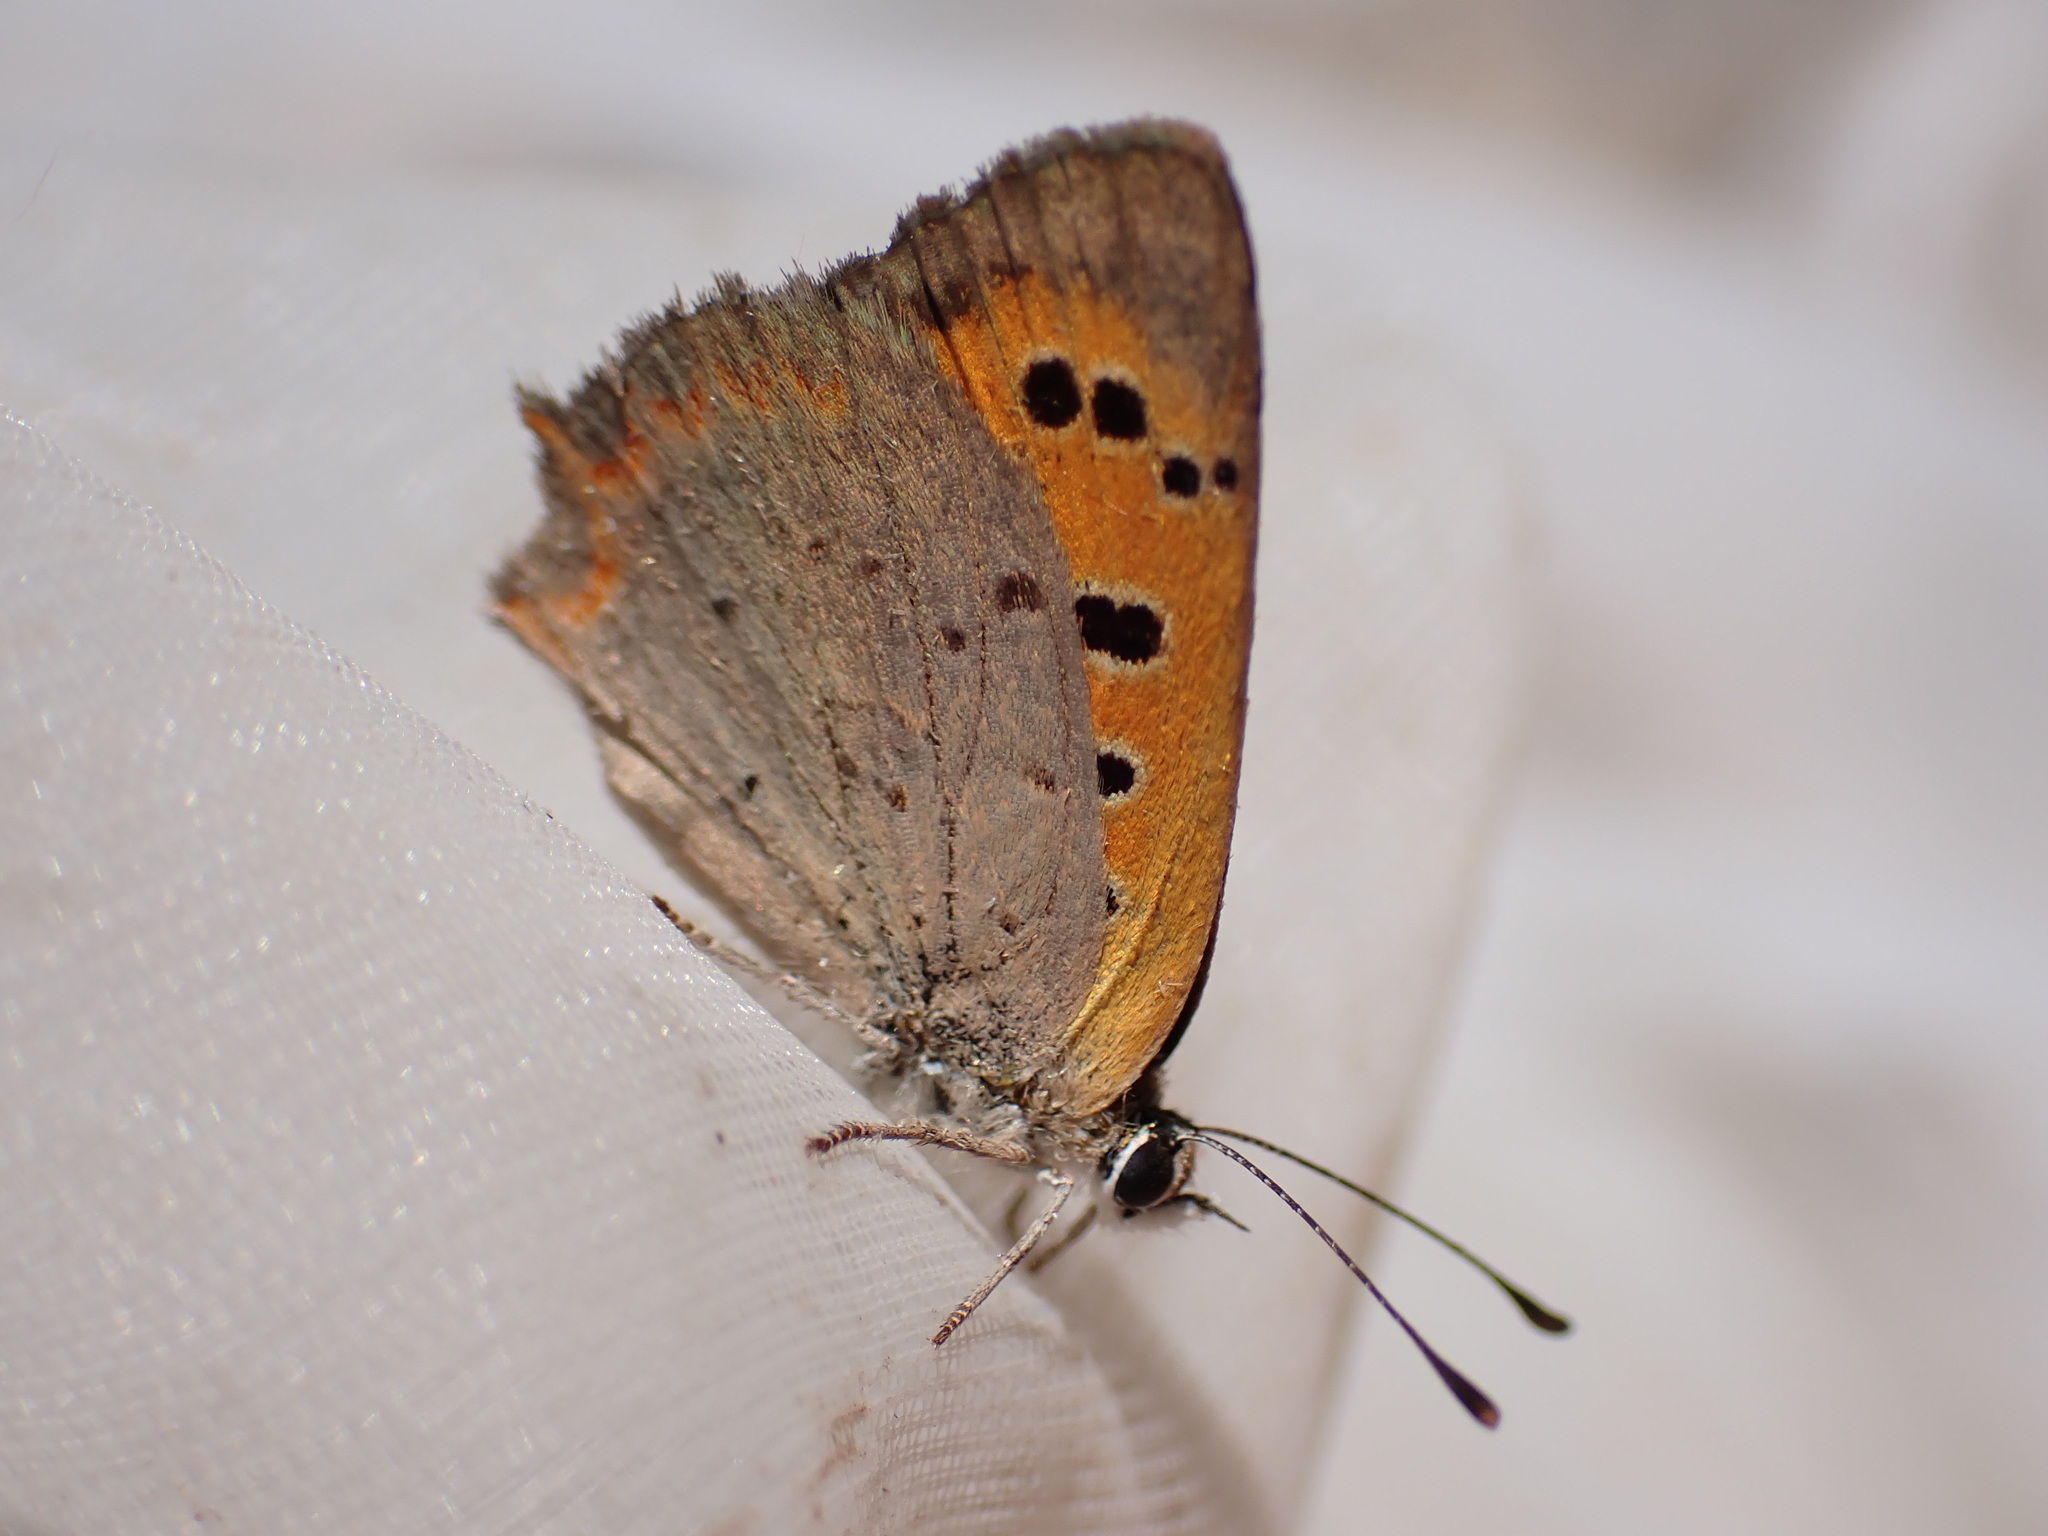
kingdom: Animalia
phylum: Arthropoda
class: Insecta
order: Lepidoptera
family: Lycaenidae
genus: Lycaena
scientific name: Lycaena phlaeas
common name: Small copper
